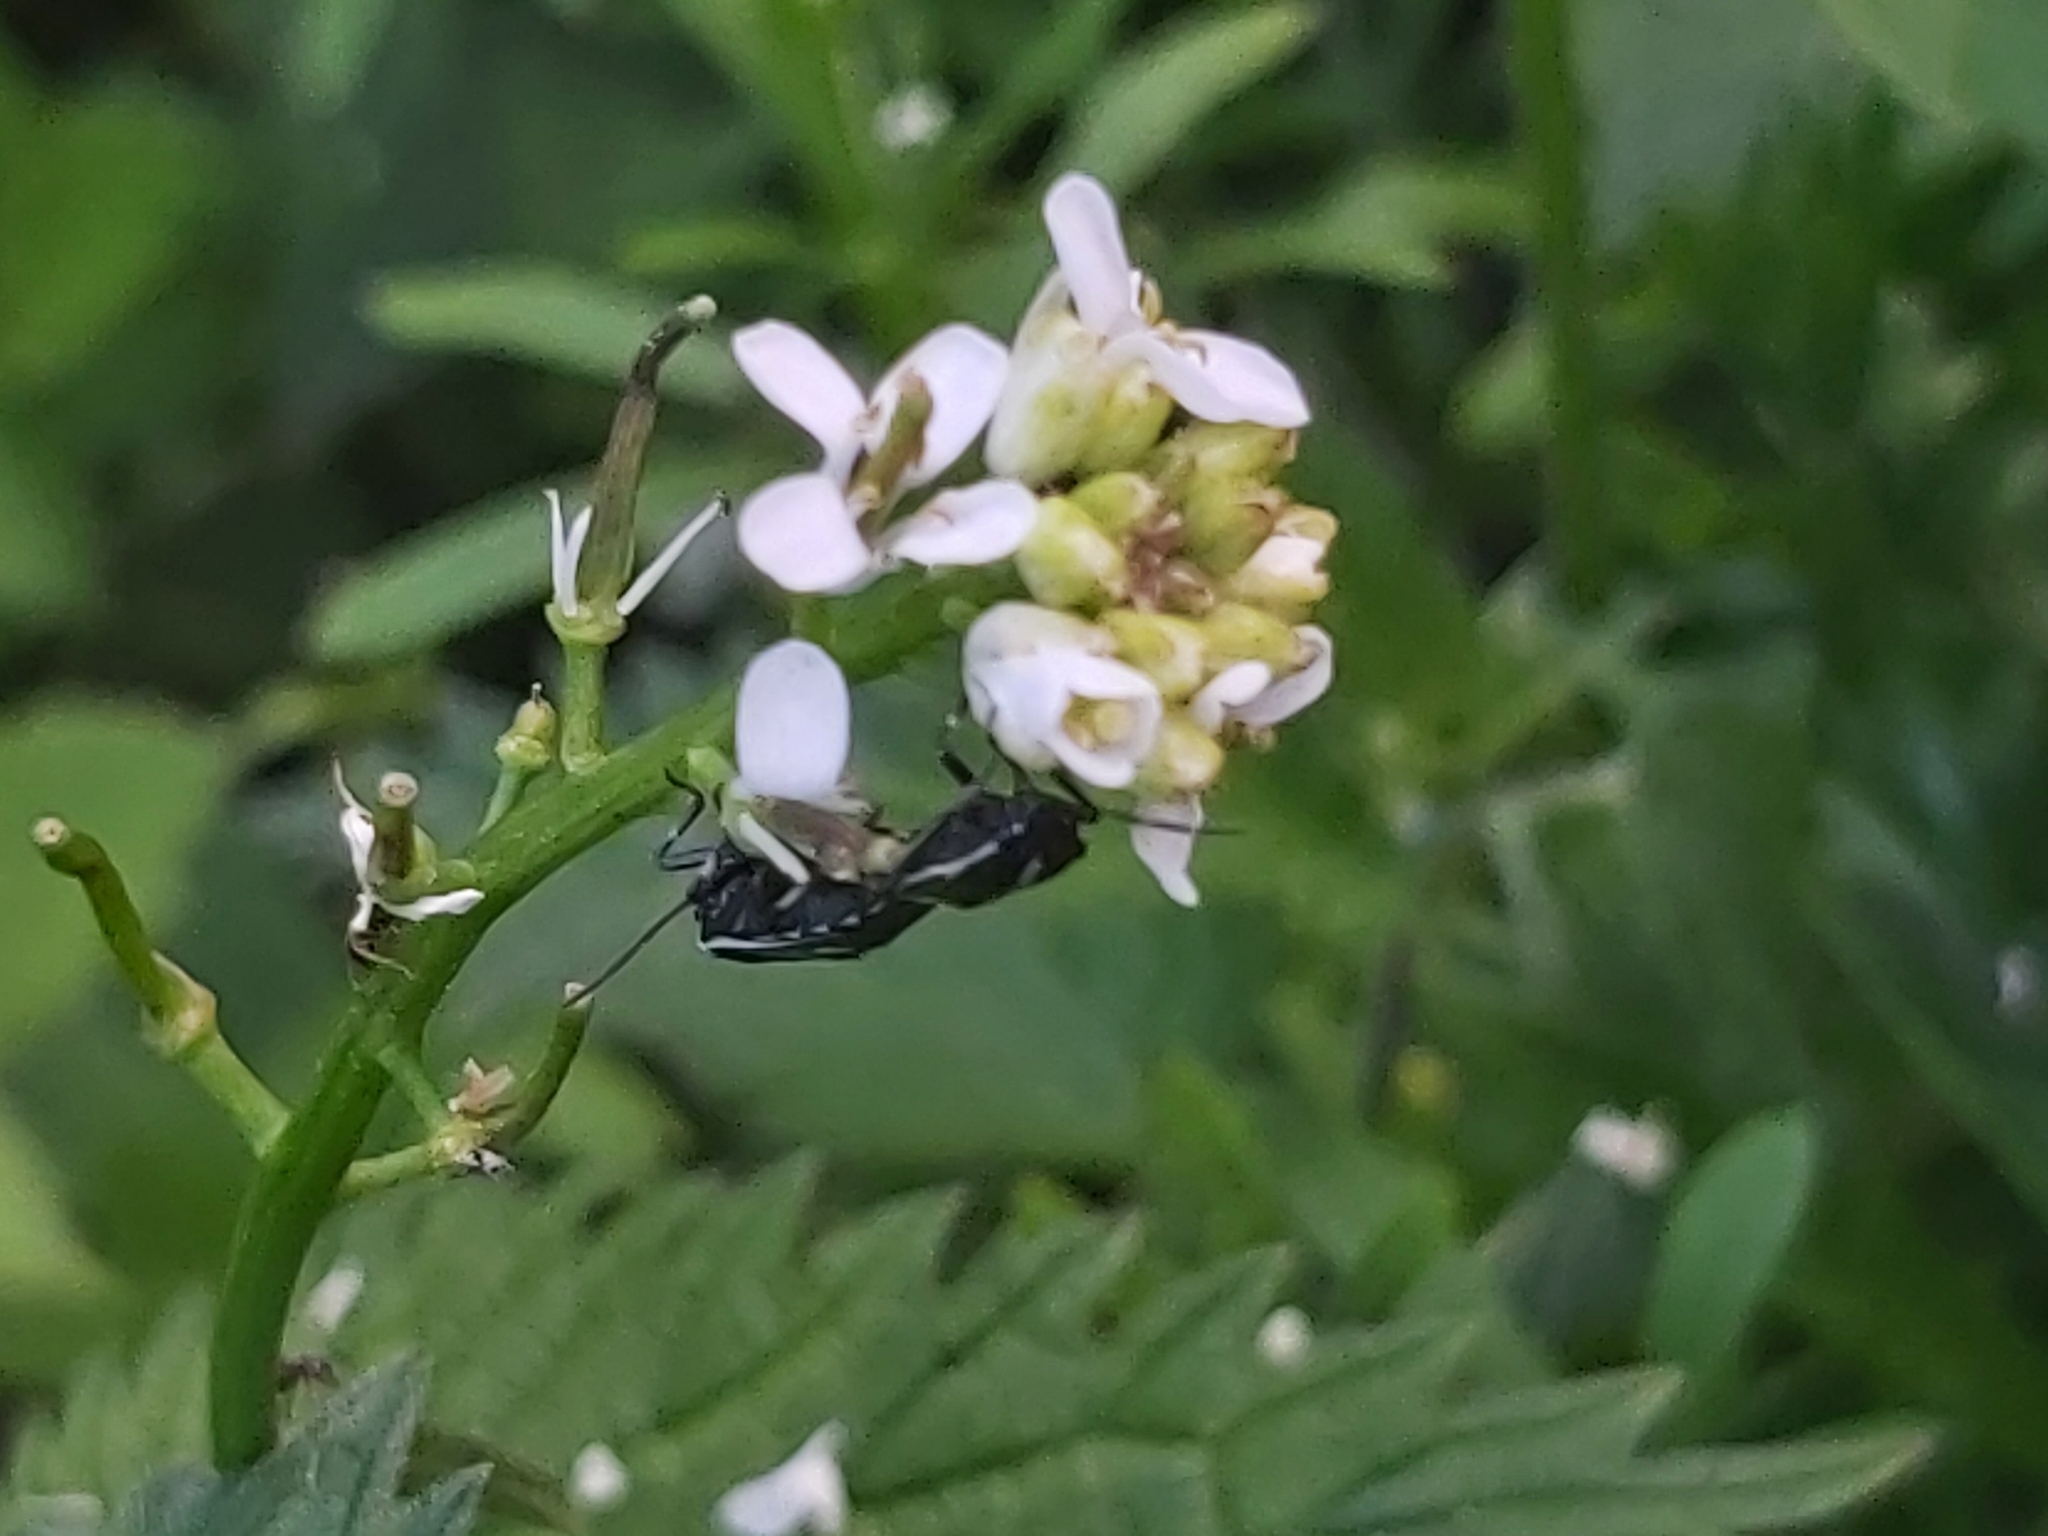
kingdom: Animalia
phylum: Arthropoda
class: Insecta
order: Hemiptera
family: Pentatomidae
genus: Eurydema
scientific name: Eurydema oleracea
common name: Cabbage bug
